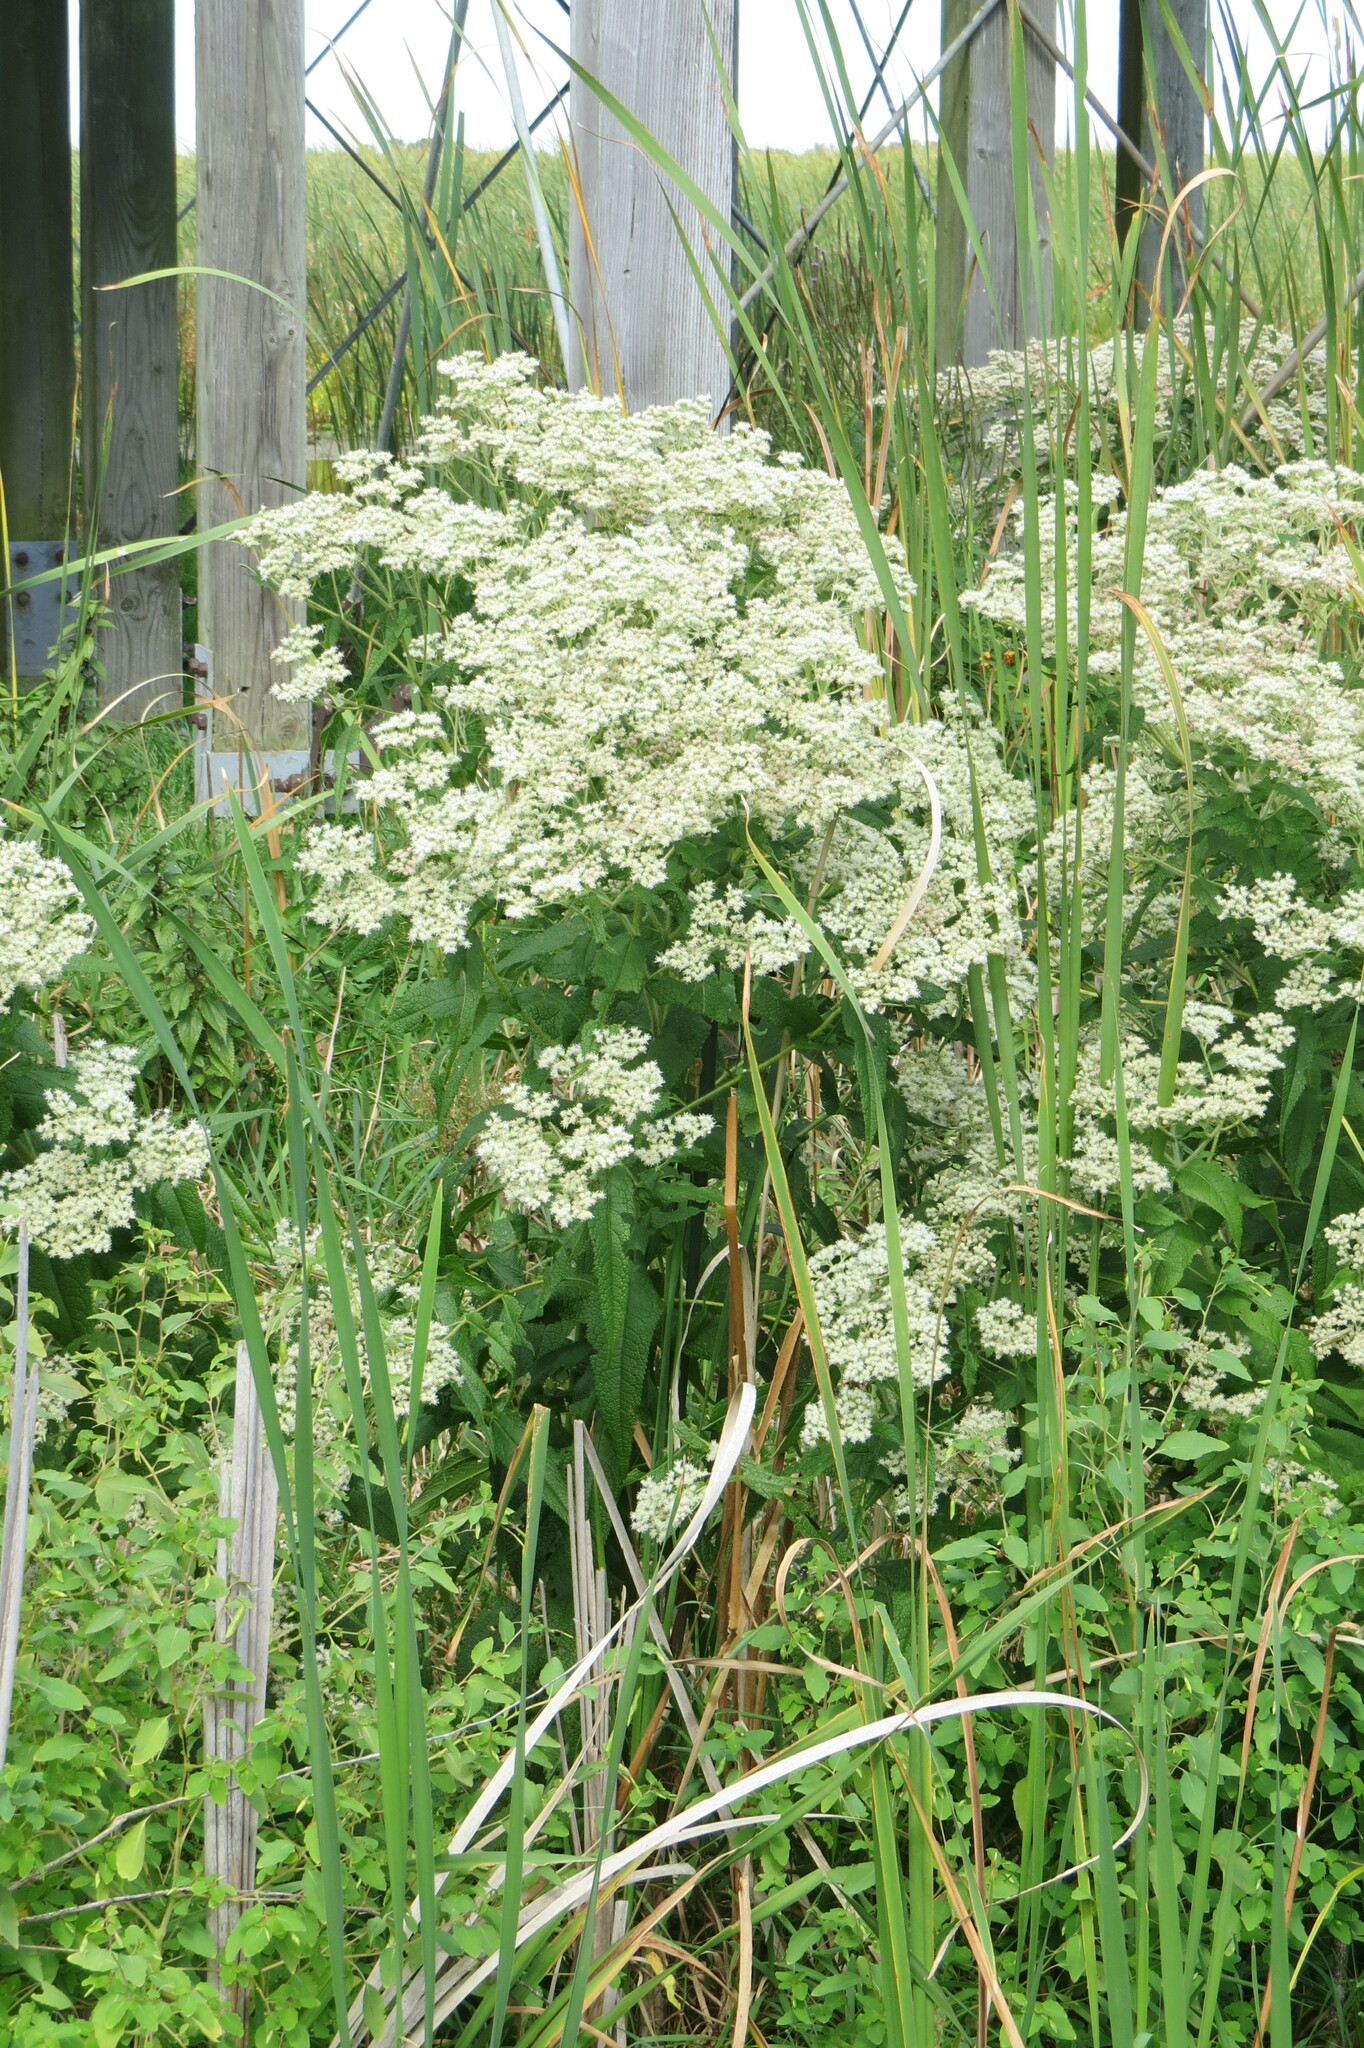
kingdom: Plantae
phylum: Tracheophyta
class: Magnoliopsida
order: Asterales
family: Asteraceae
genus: Eupatorium
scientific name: Eupatorium perfoliatum
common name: Boneset
